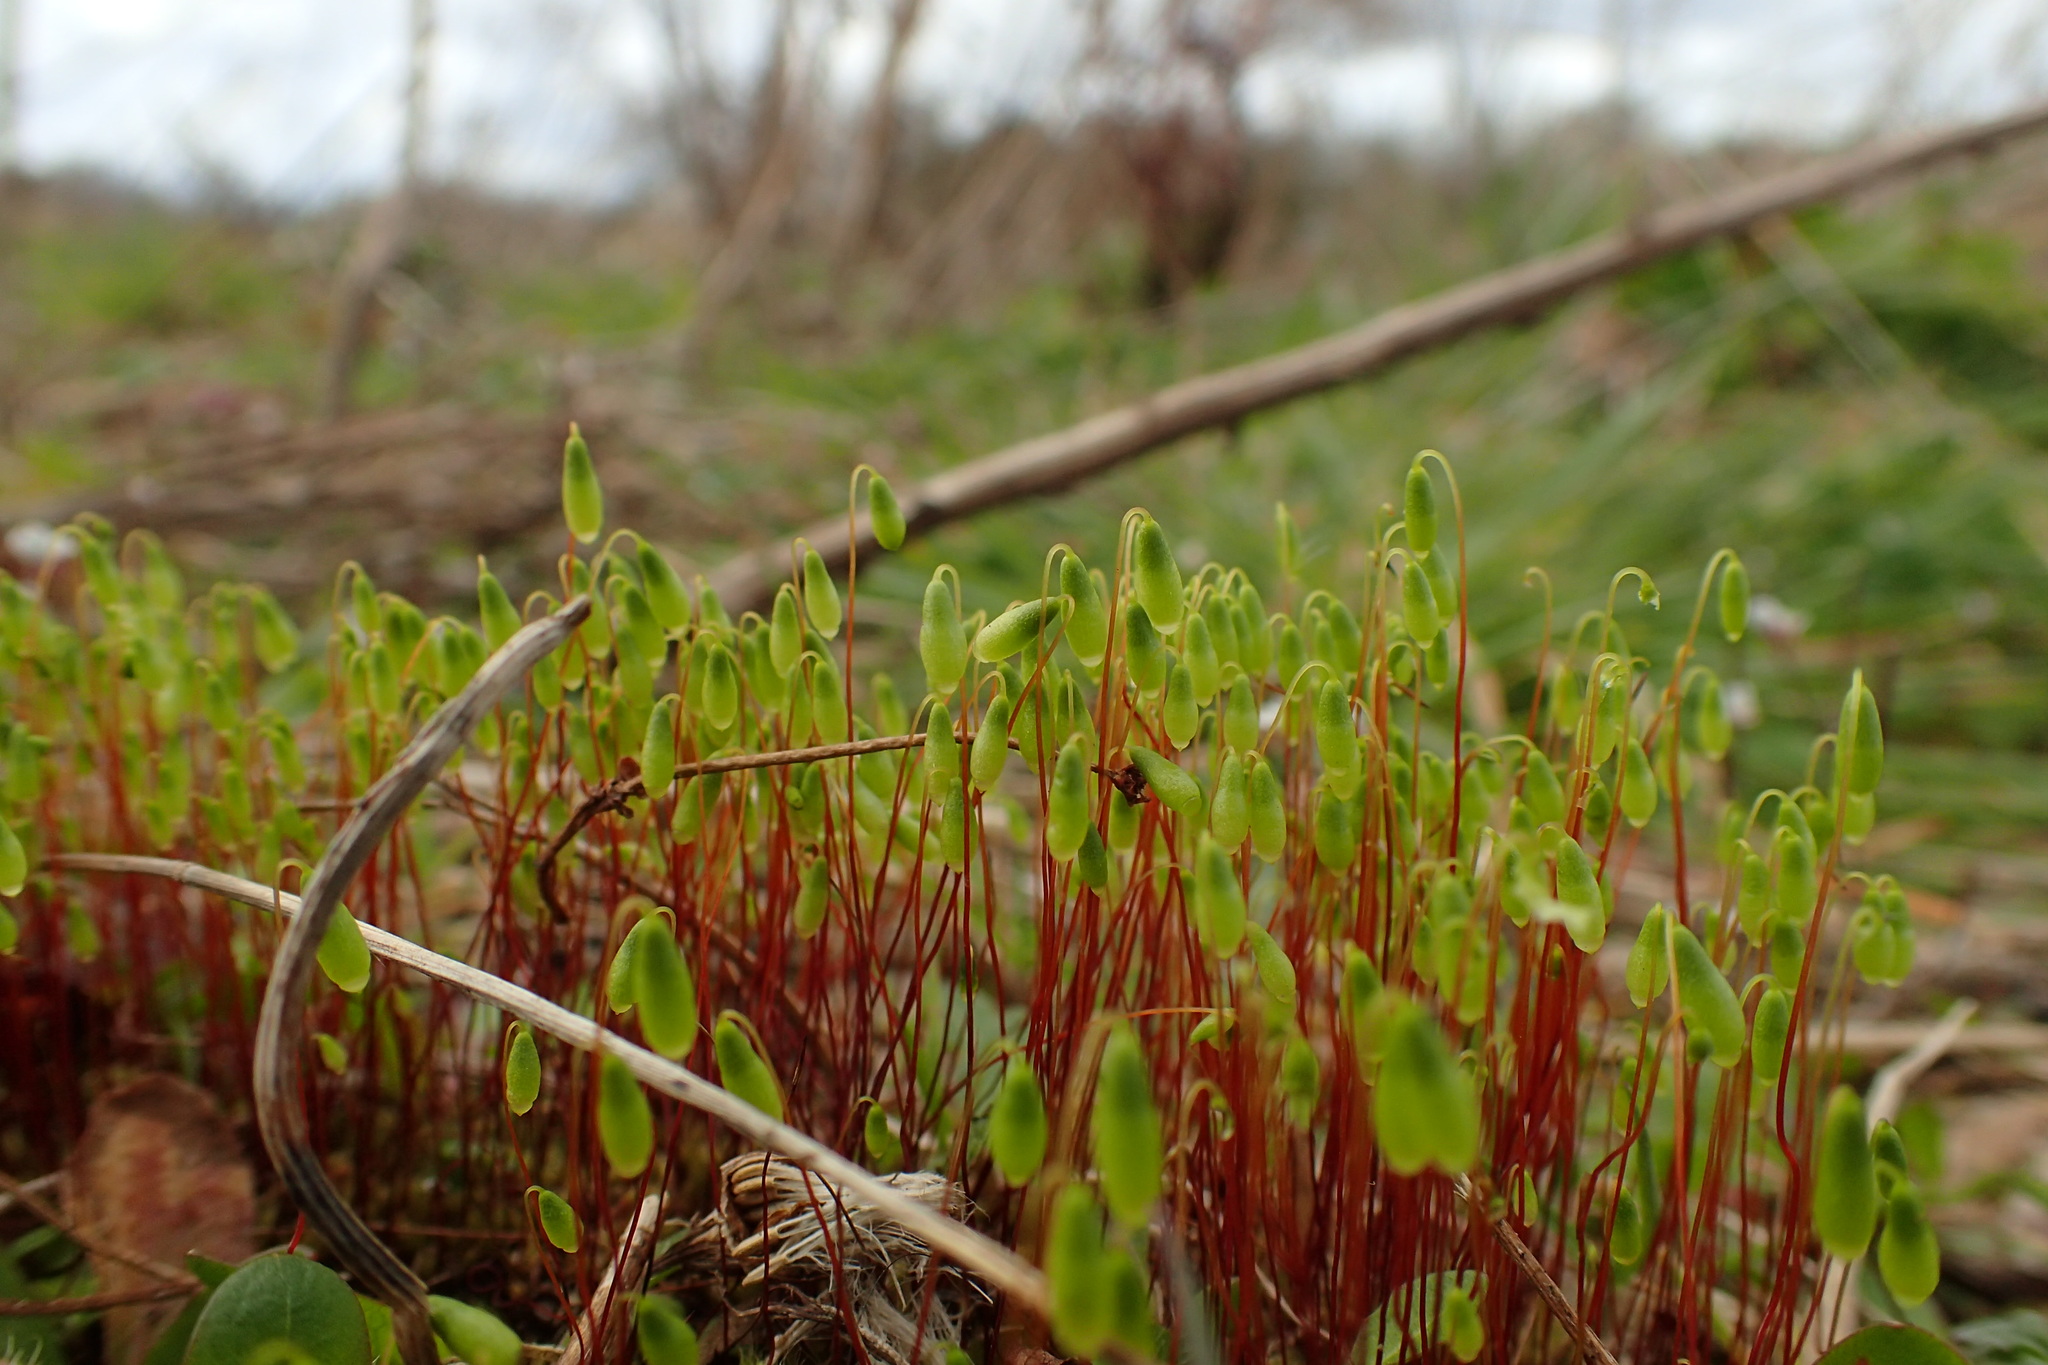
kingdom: Plantae
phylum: Bryophyta
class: Bryopsida
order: Bryales
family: Bryaceae
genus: Rosulabryum
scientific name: Rosulabryum capillare
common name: Capillary thread-moss
